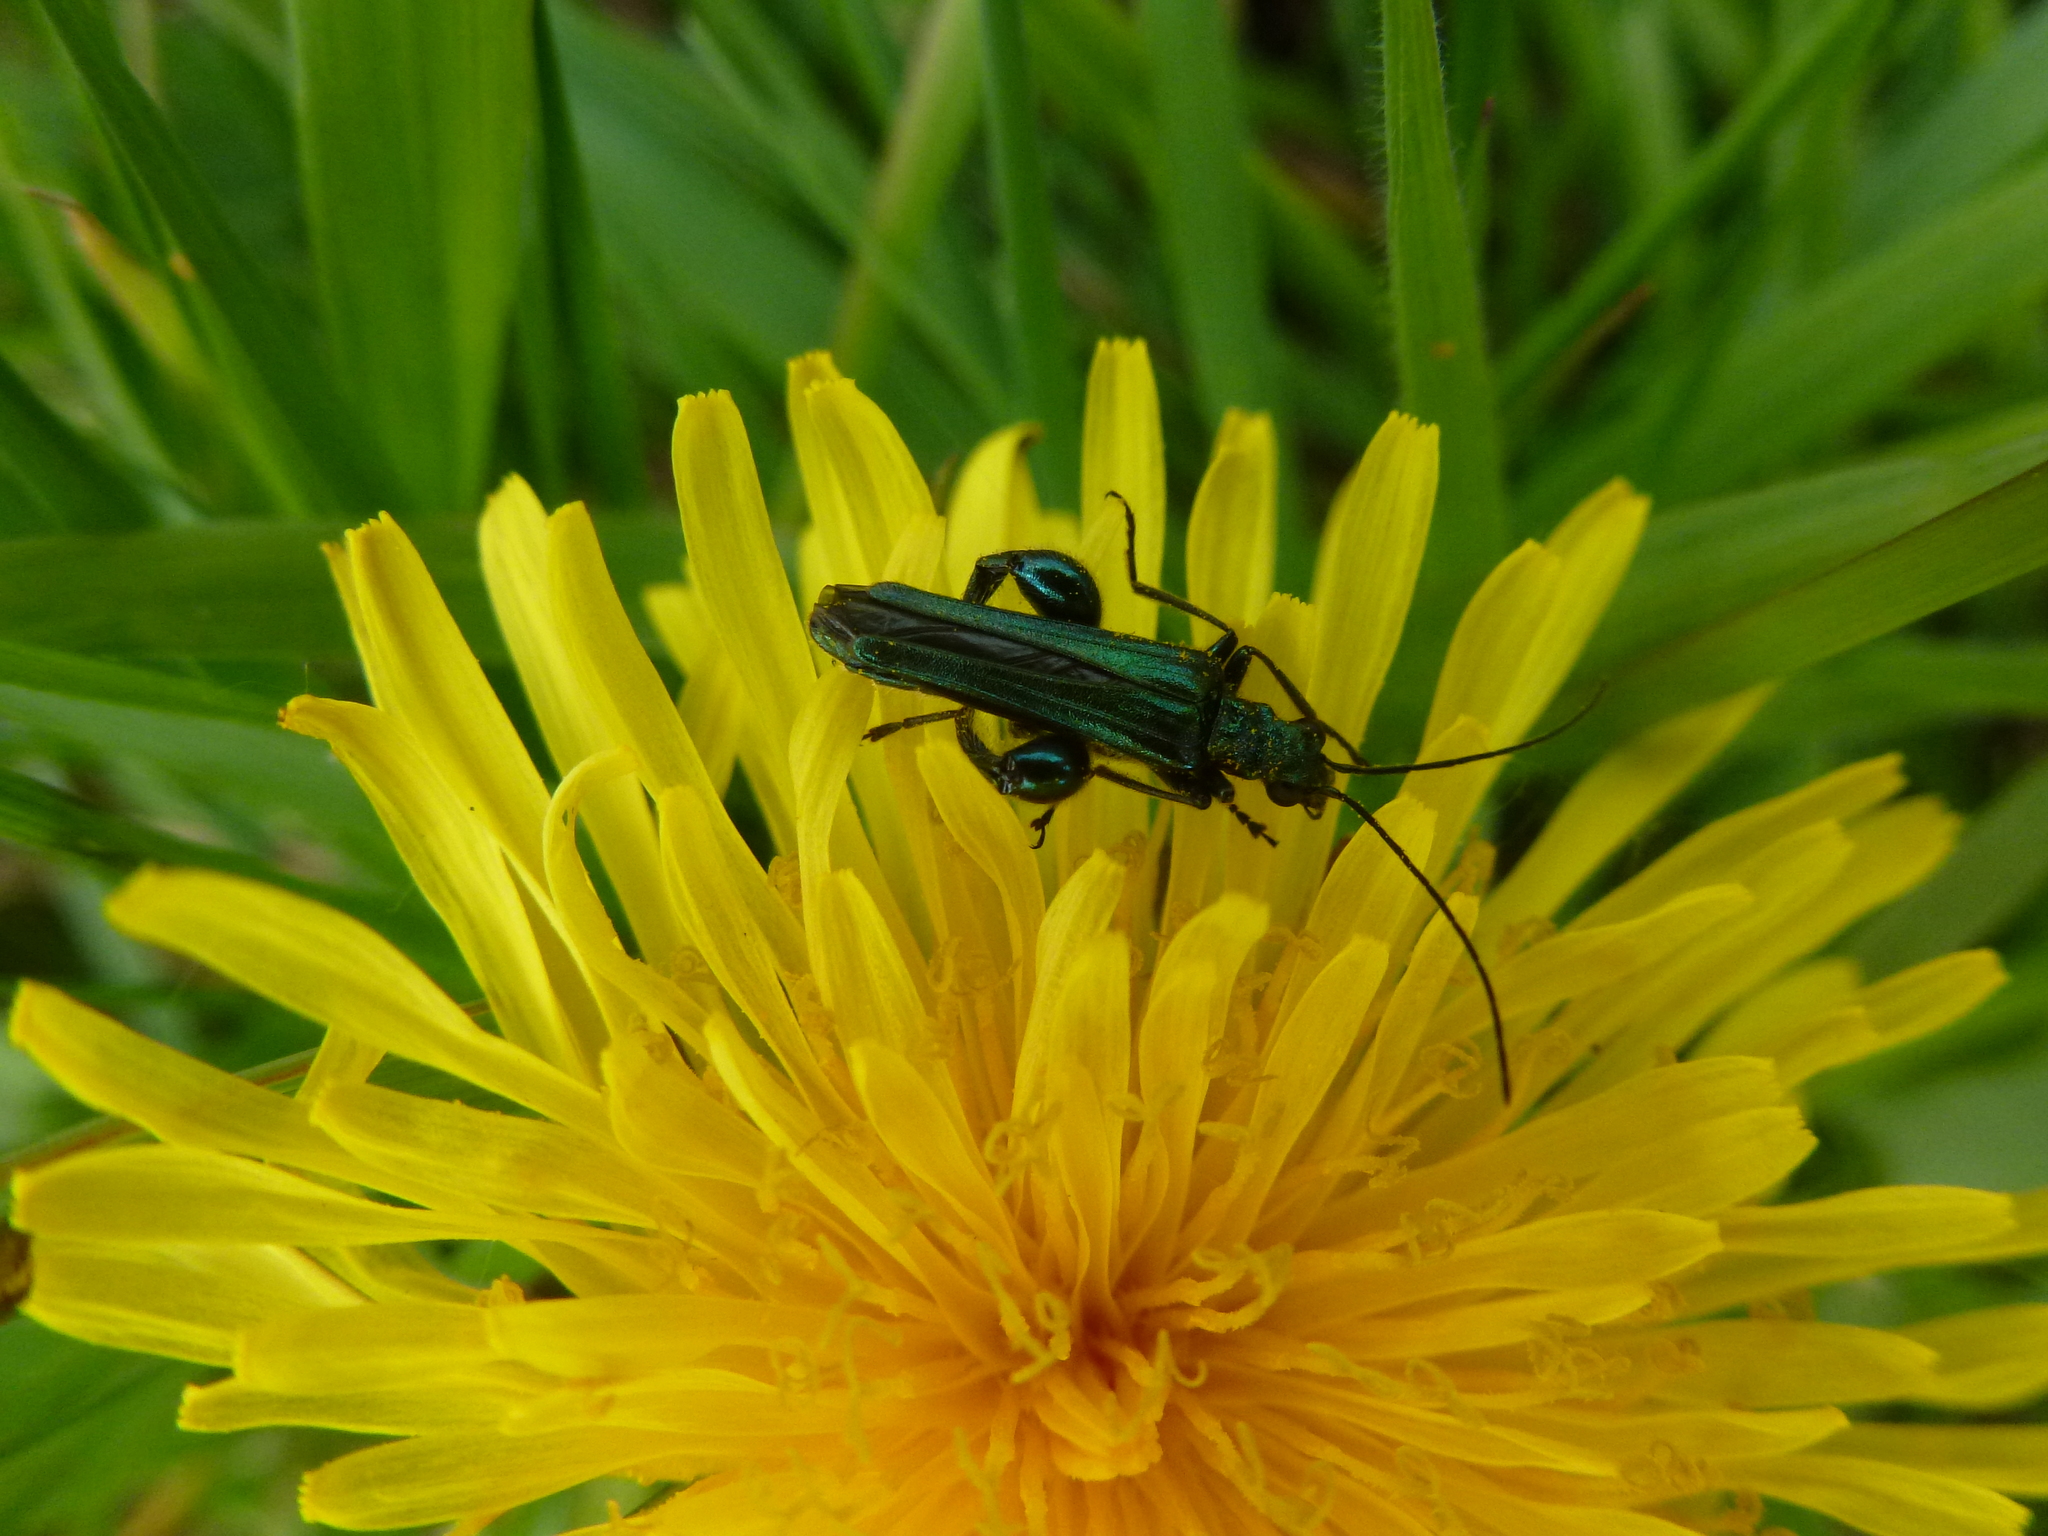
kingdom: Animalia
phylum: Arthropoda
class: Insecta
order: Coleoptera
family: Oedemeridae
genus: Oedemera
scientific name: Oedemera nobilis
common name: Swollen-thighed beetle
